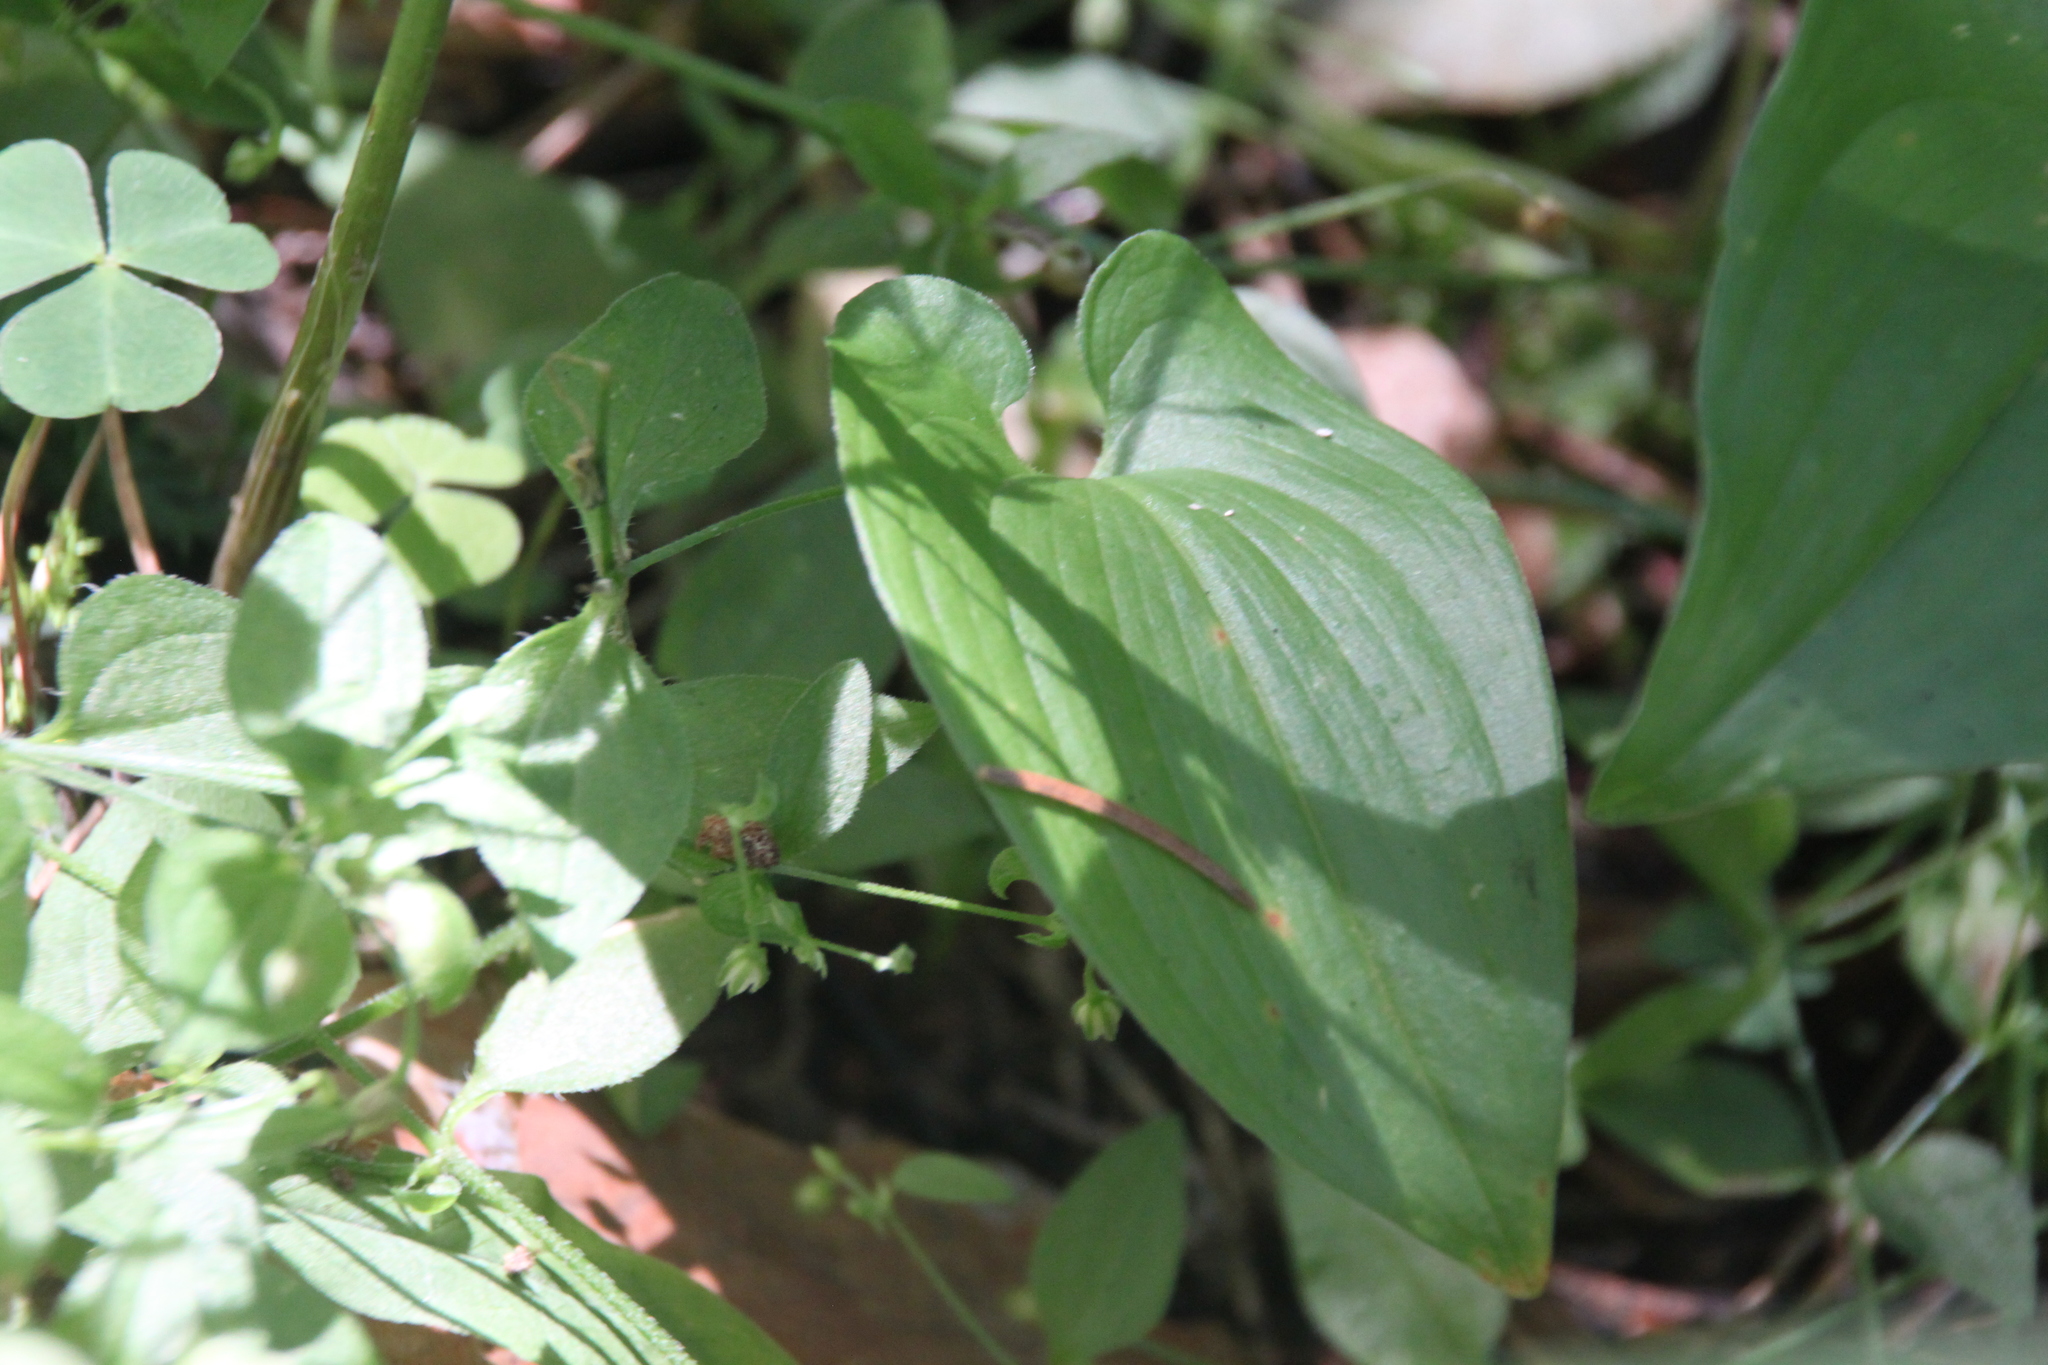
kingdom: Plantae
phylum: Tracheophyta
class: Liliopsida
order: Asparagales
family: Asparagaceae
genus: Maianthemum
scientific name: Maianthemum bifolium
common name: May lily
